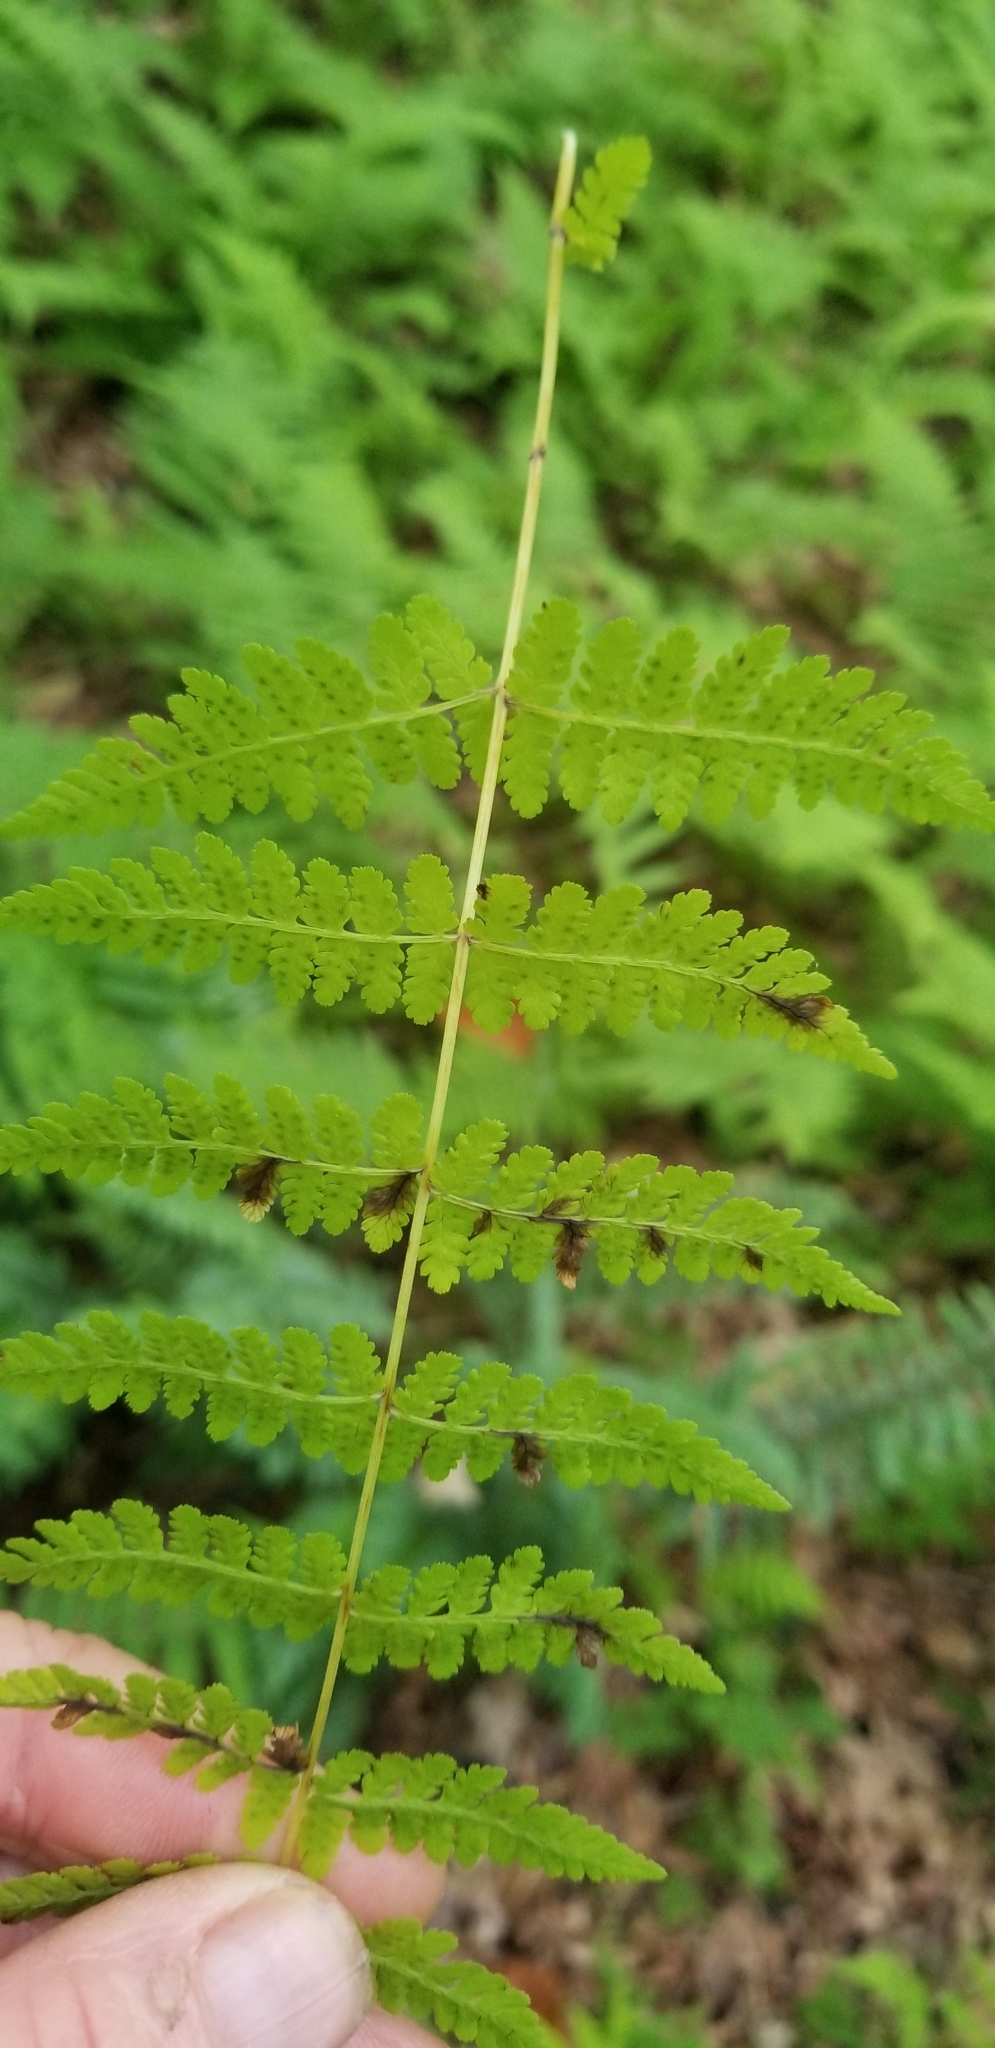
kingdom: Plantae
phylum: Tracheophyta
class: Polypodiopsida
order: Polypodiales
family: Cystopteridaceae
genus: Cystopteris
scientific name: Cystopteris bulbifera
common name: Bulblet bladder fern
